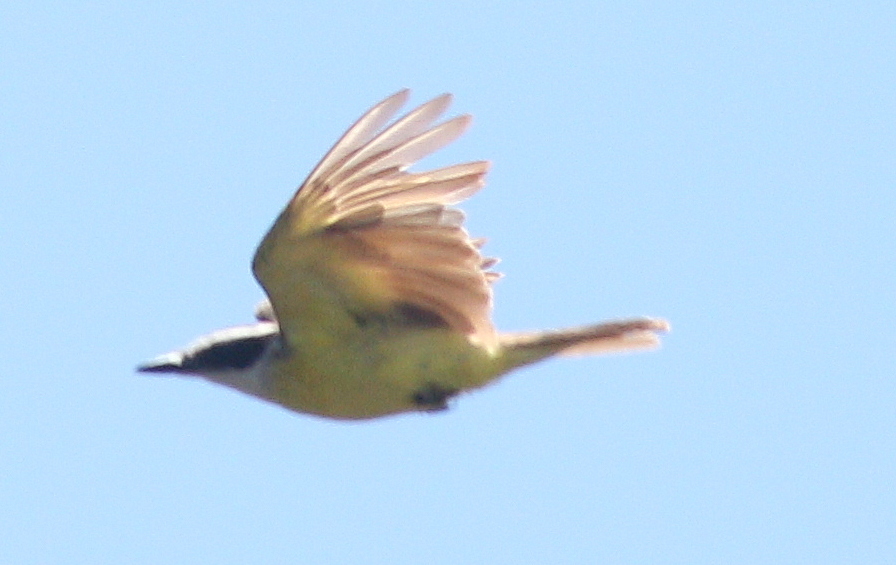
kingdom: Animalia
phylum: Chordata
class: Aves
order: Passeriformes
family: Tyrannidae
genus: Pitangus
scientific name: Pitangus sulphuratus
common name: Great kiskadee
